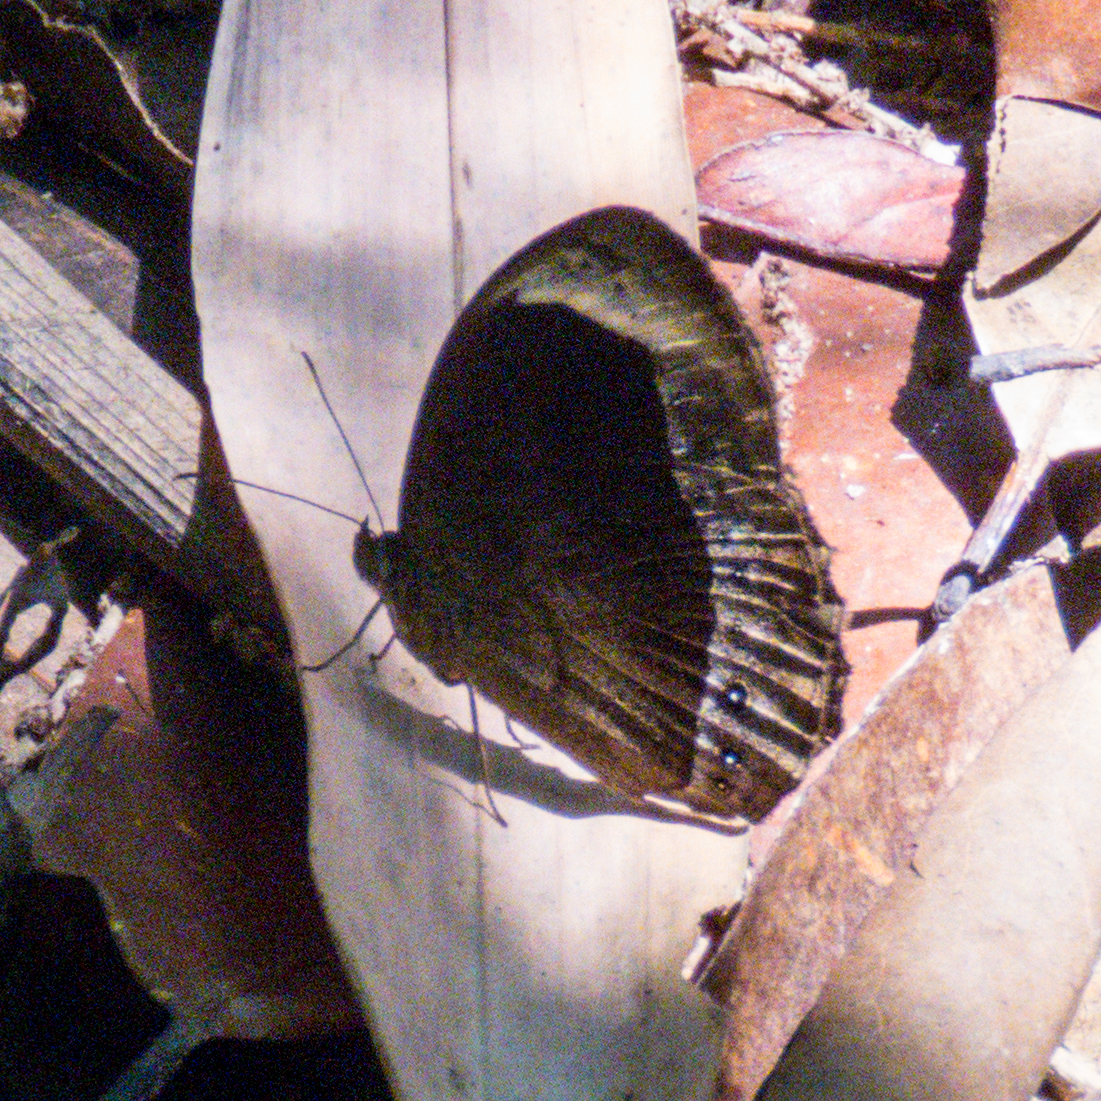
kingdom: Animalia
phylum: Arthropoda
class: Insecta
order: Lepidoptera
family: Nymphalidae
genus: Mycalesis
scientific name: Mycalesis anaxioides
